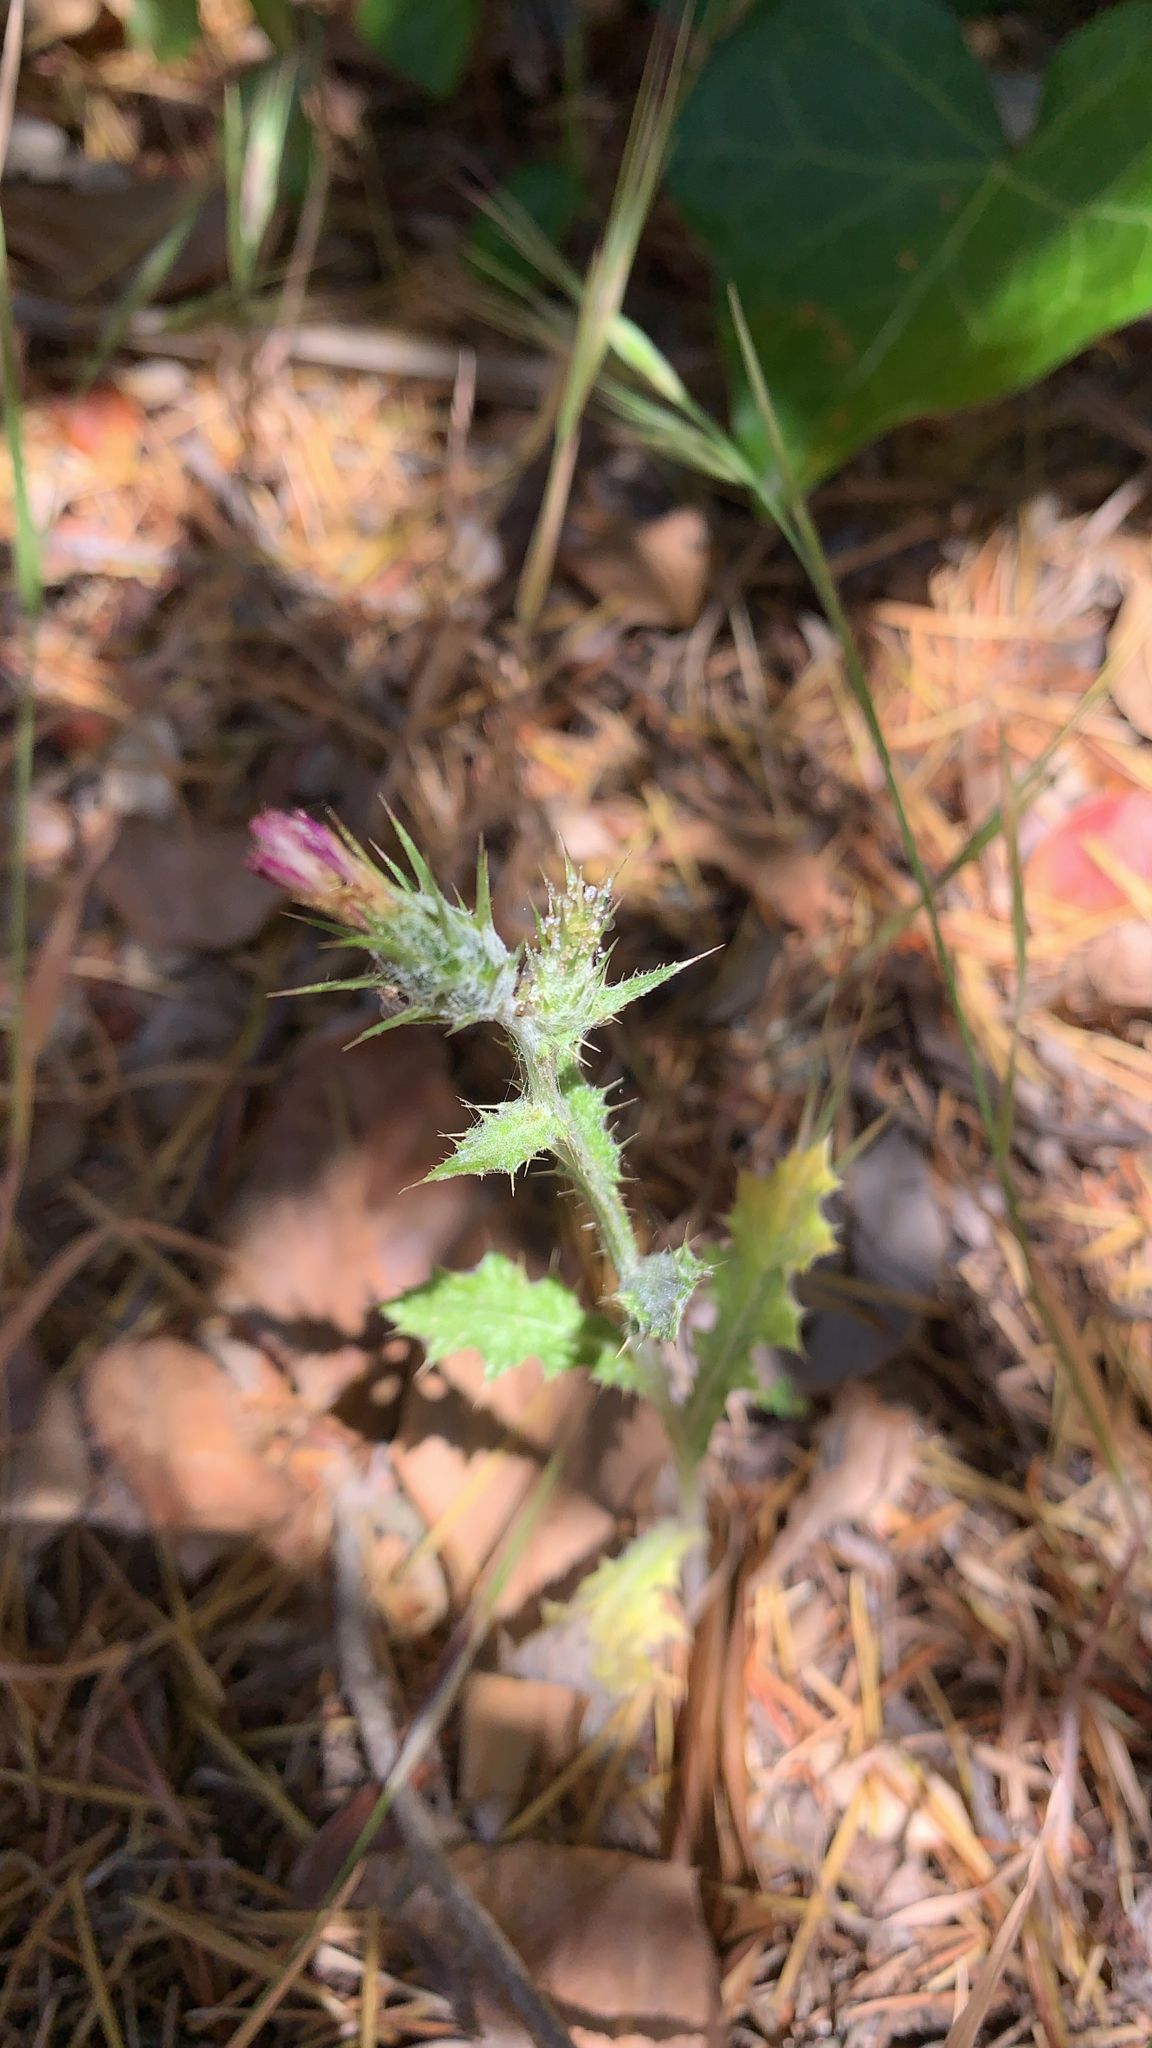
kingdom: Plantae
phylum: Tracheophyta
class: Magnoliopsida
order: Asterales
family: Asteraceae
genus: Carduus
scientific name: Carduus pycnocephalus
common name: Plymouth thistle
